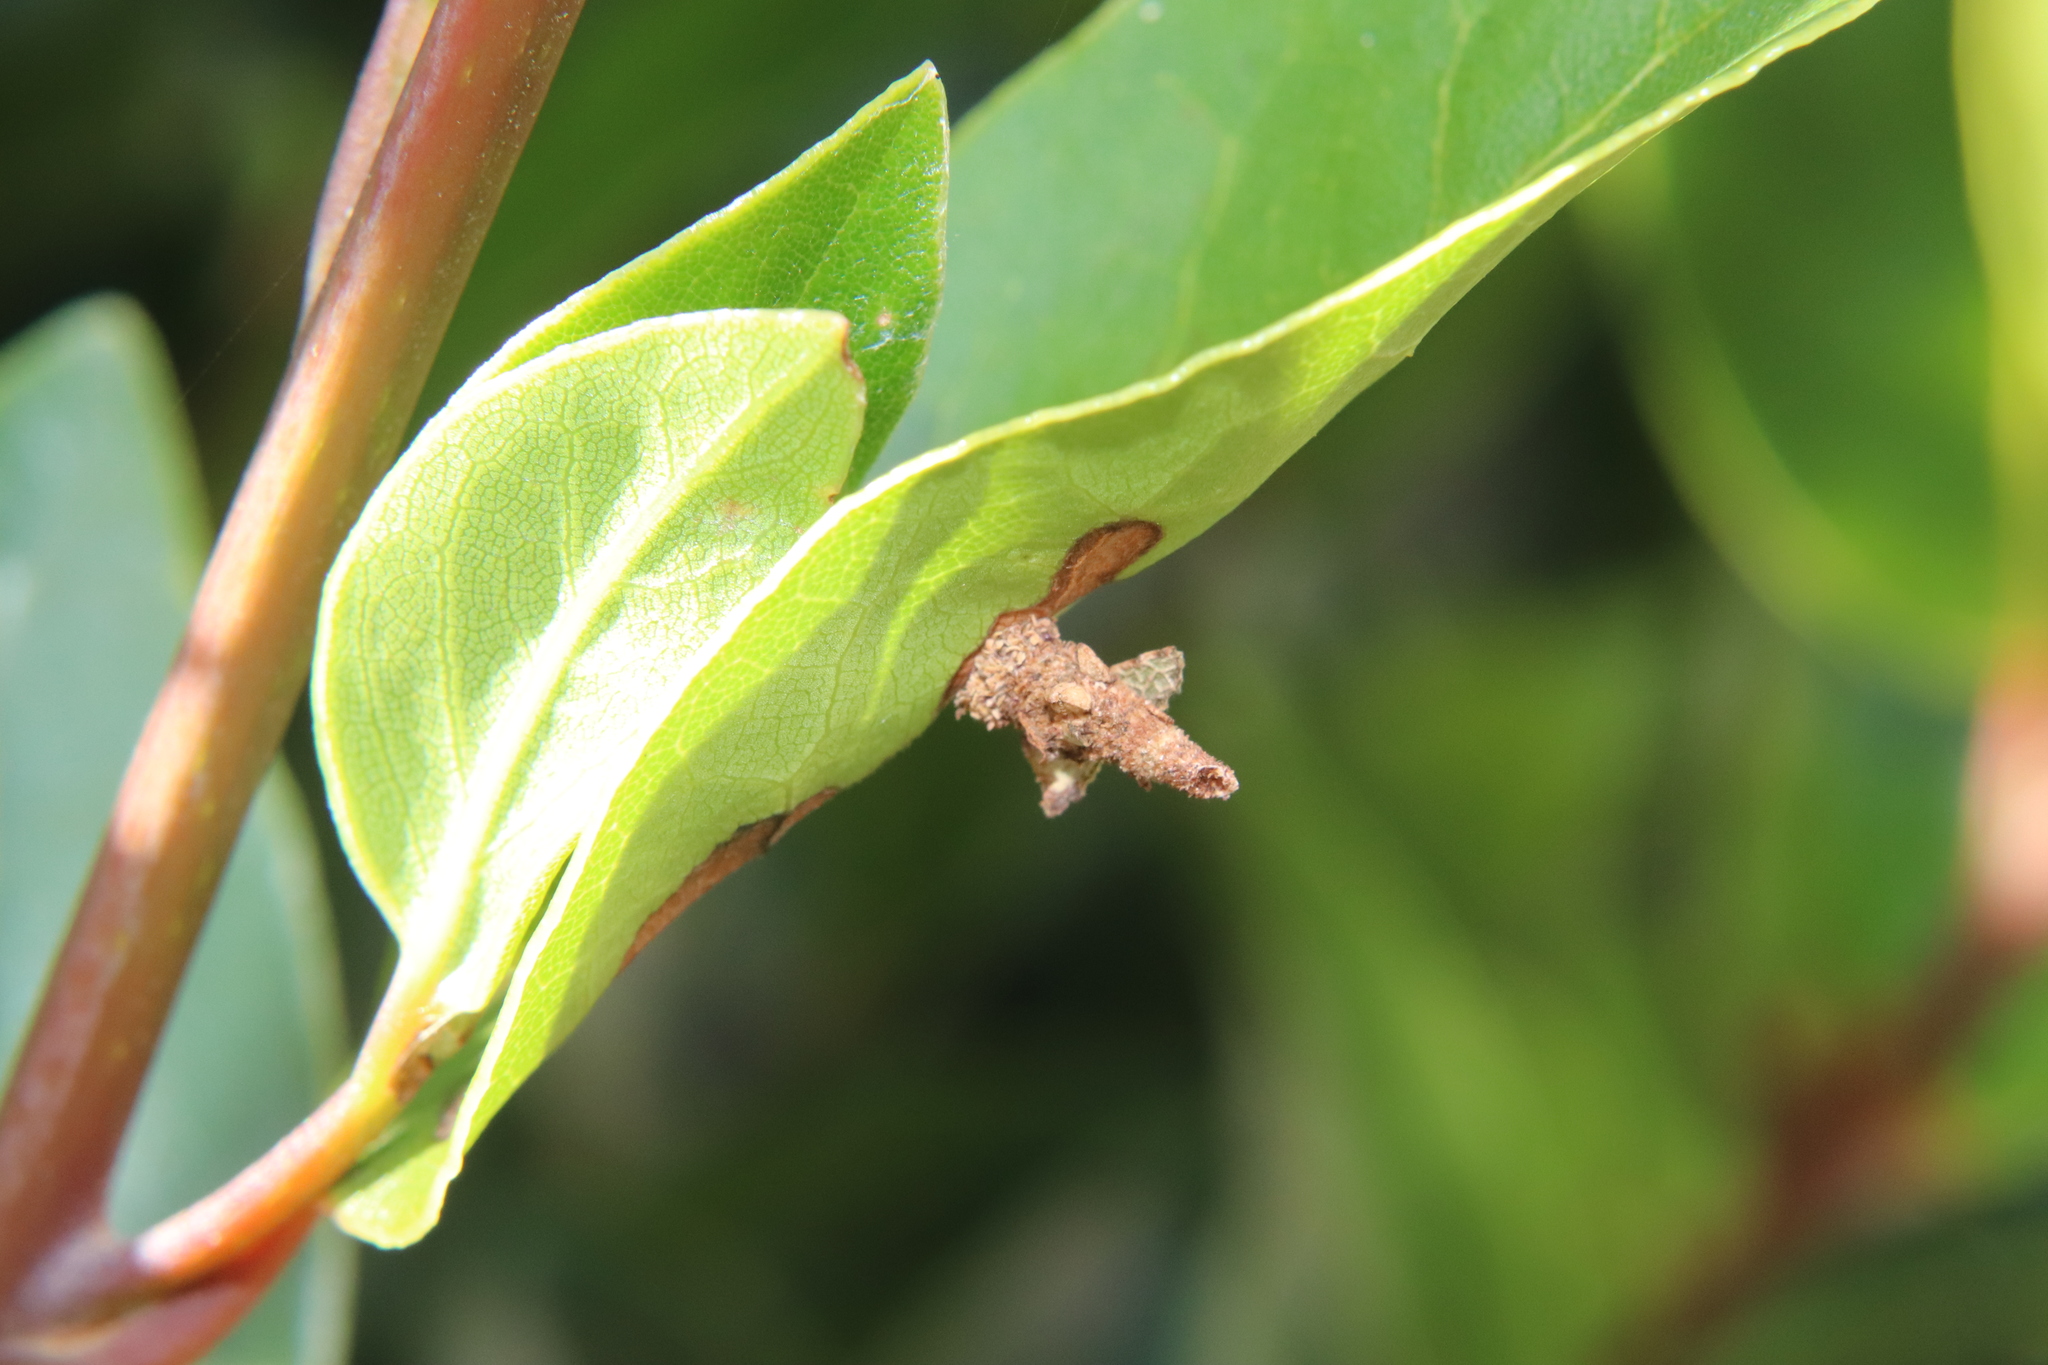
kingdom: Animalia
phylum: Arthropoda
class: Insecta
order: Lepidoptera
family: Psychidae
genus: Liothula
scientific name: Liothula omnivora
